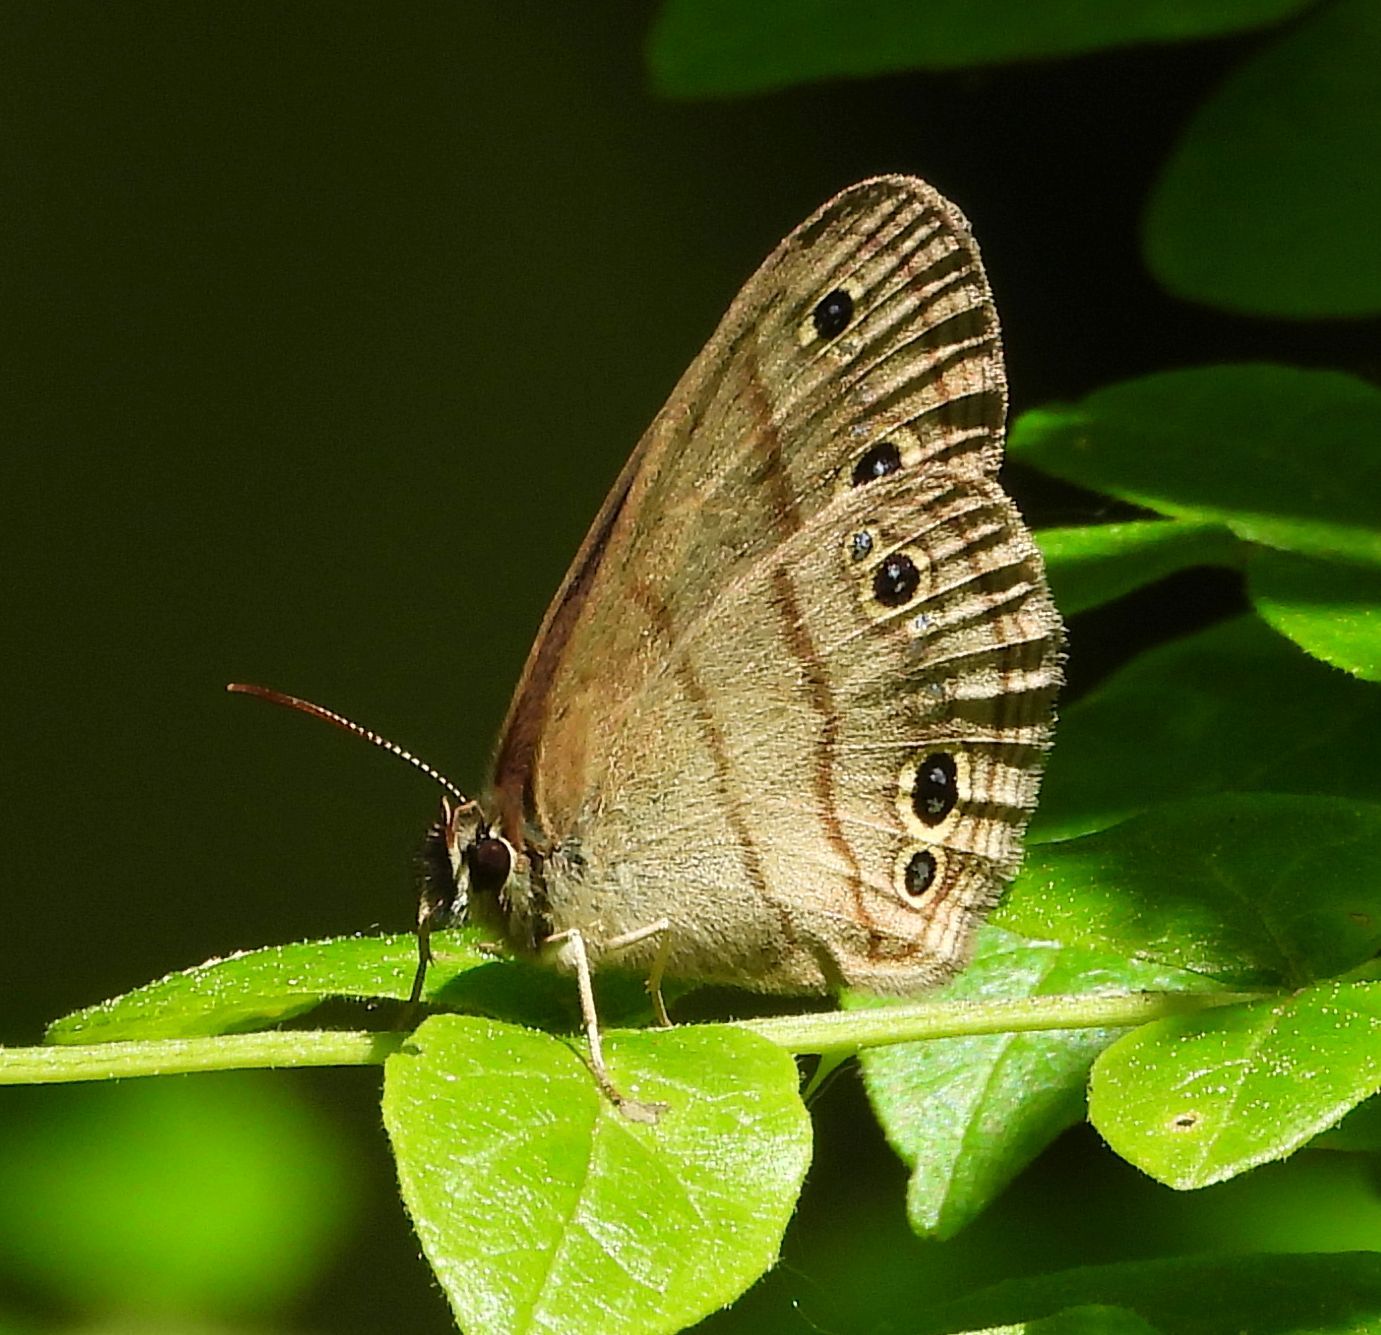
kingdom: Animalia
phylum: Arthropoda
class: Insecta
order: Lepidoptera
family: Nymphalidae
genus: Euptychia
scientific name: Euptychia cymela
